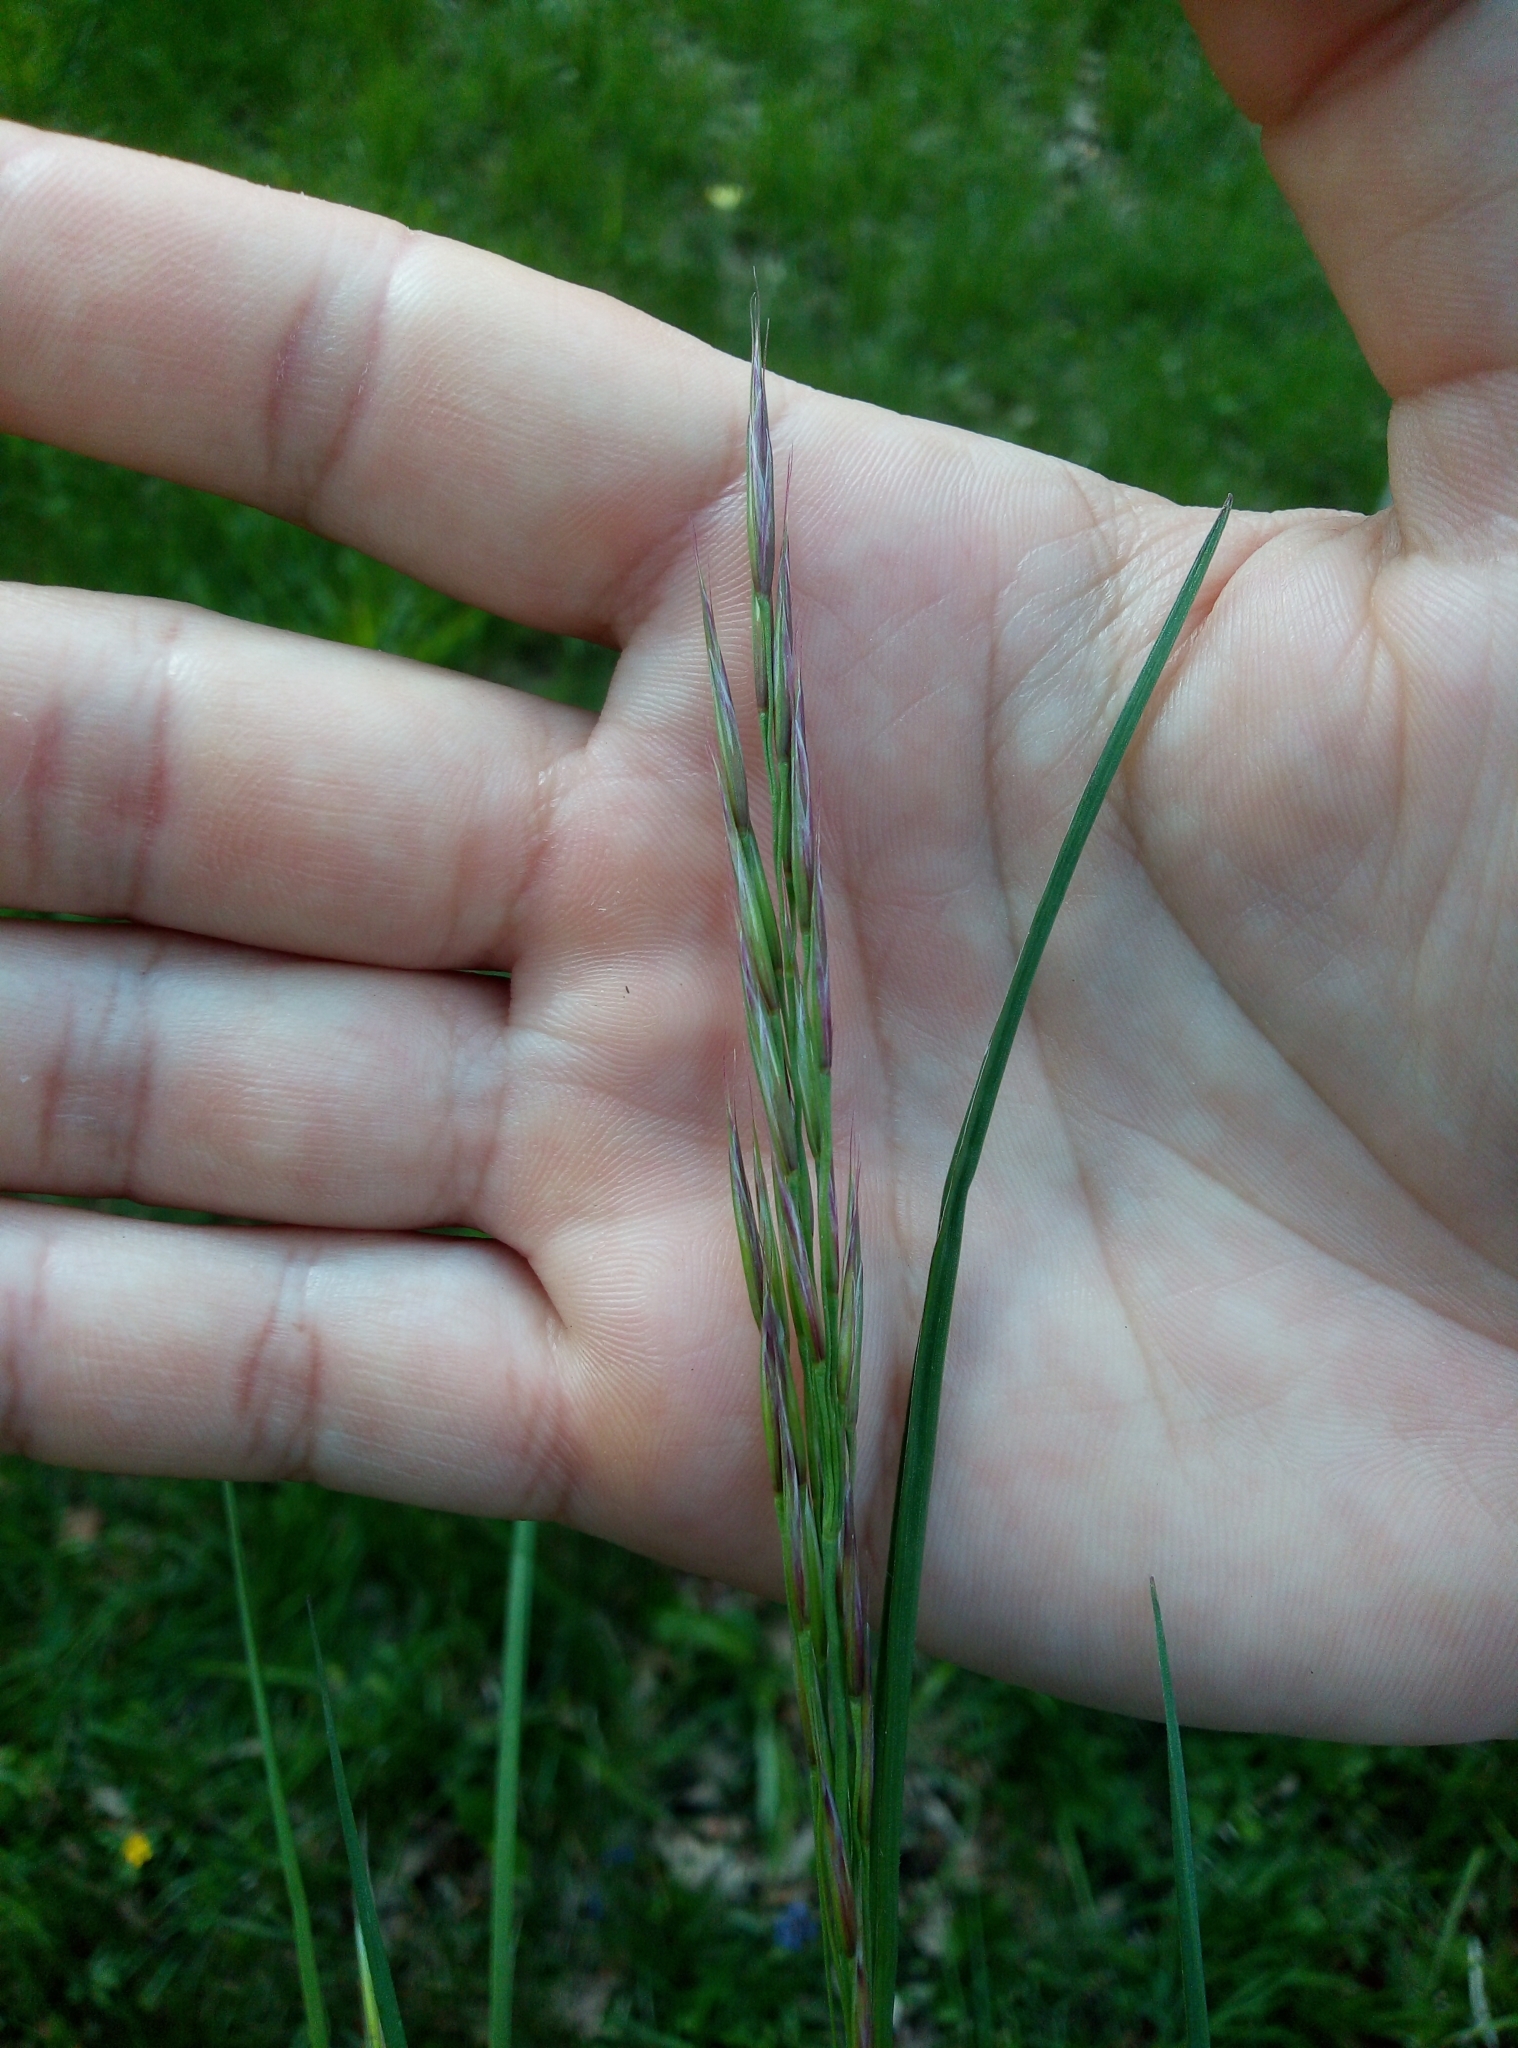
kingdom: Plantae
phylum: Tracheophyta
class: Liliopsida
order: Poales
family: Poaceae
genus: Bromus
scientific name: Bromus erectus
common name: Erect brome
